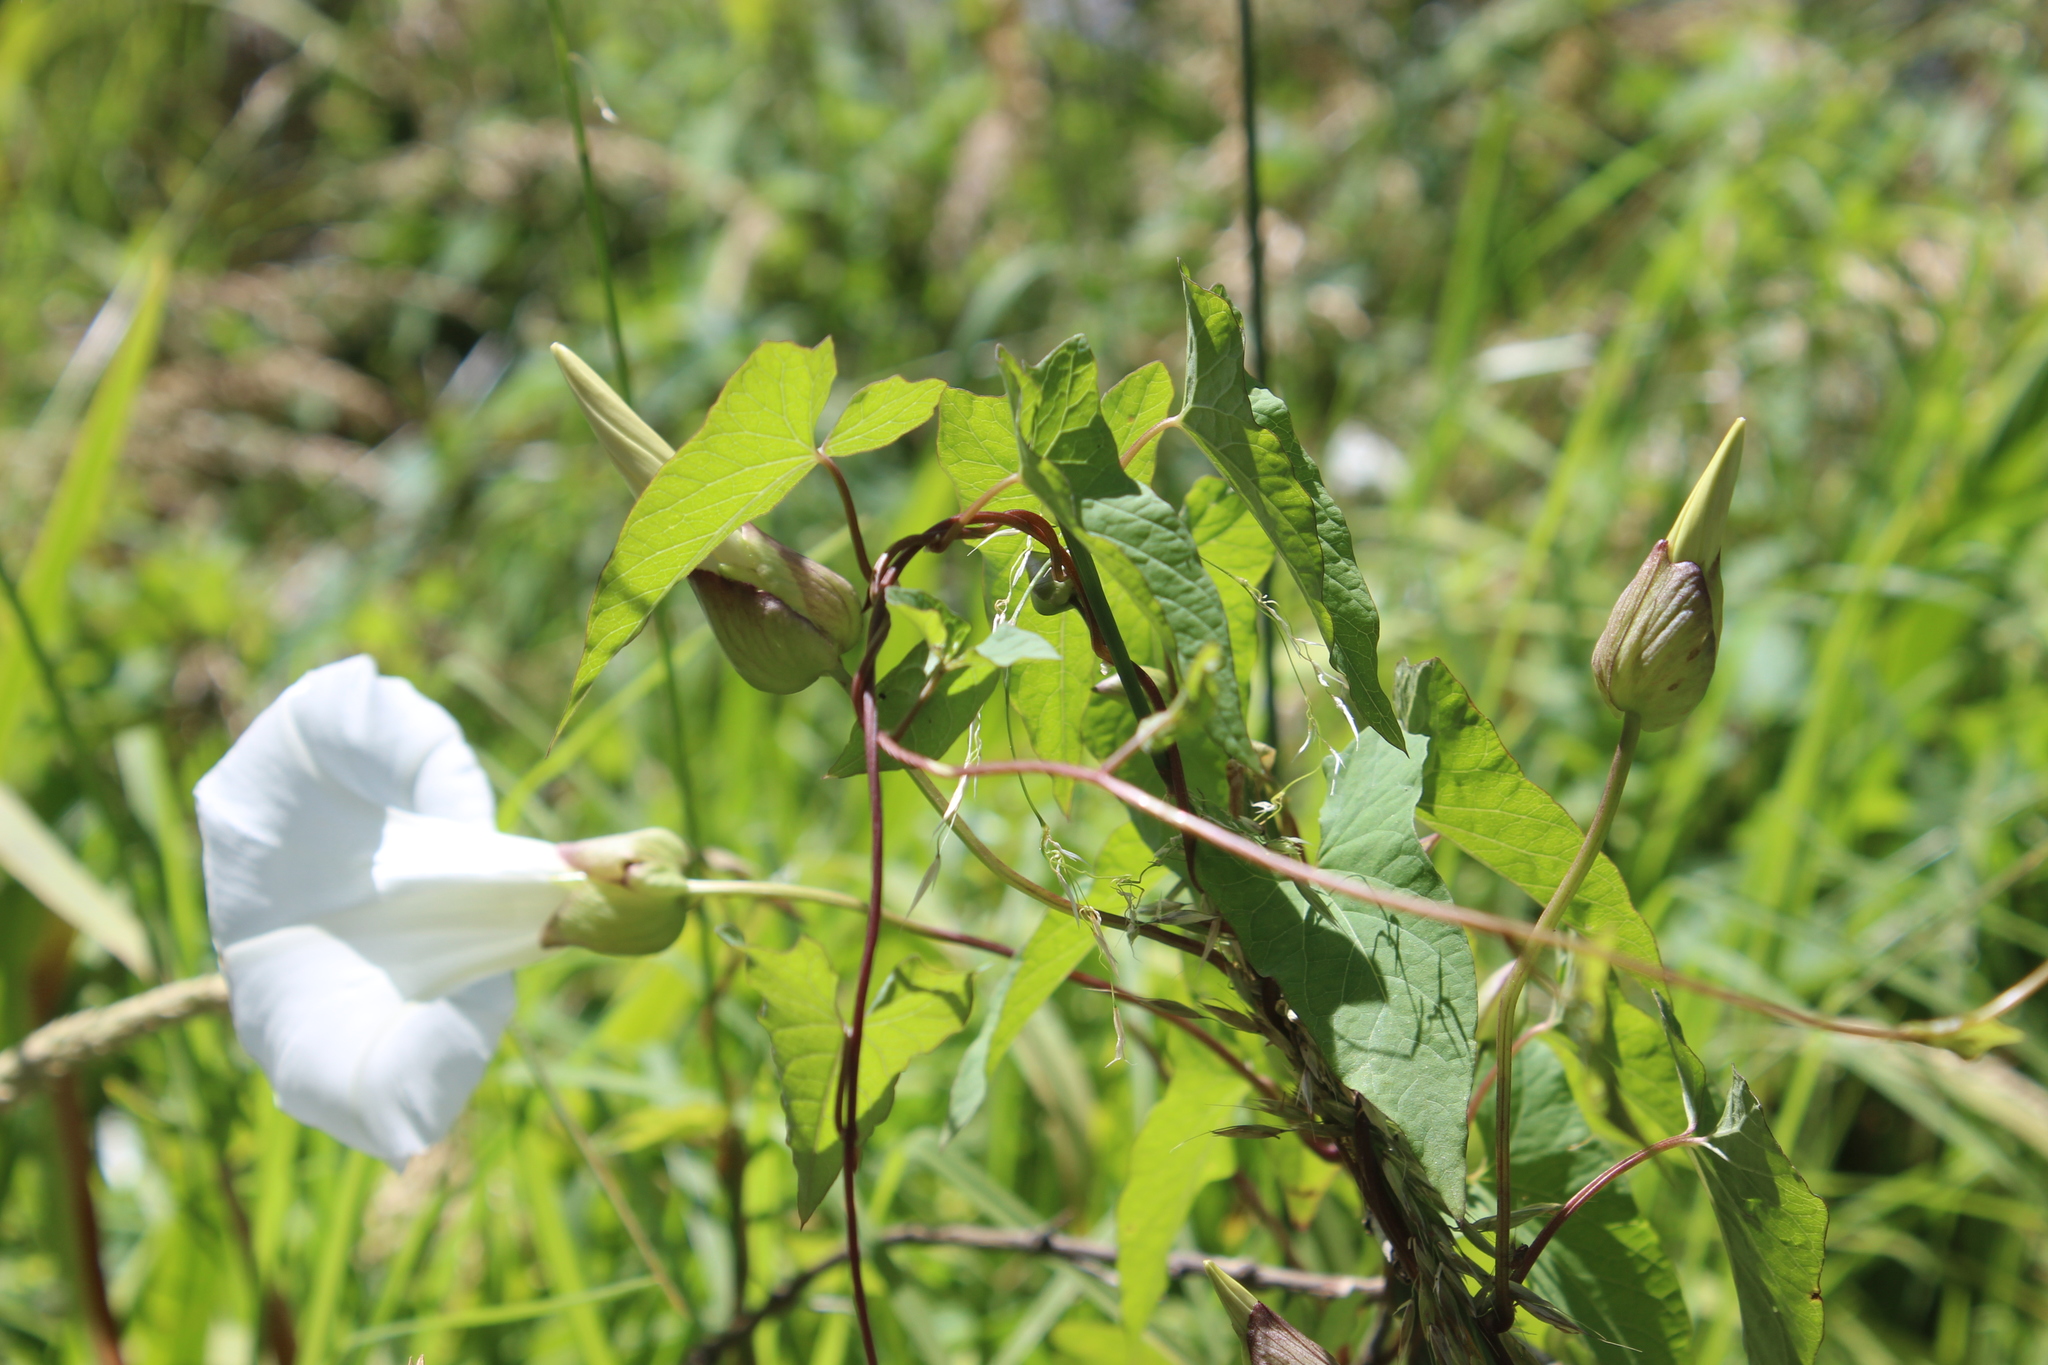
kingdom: Plantae
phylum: Tracheophyta
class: Magnoliopsida
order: Solanales
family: Convolvulaceae
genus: Calystegia
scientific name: Calystegia silvatica
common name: Large bindweed
